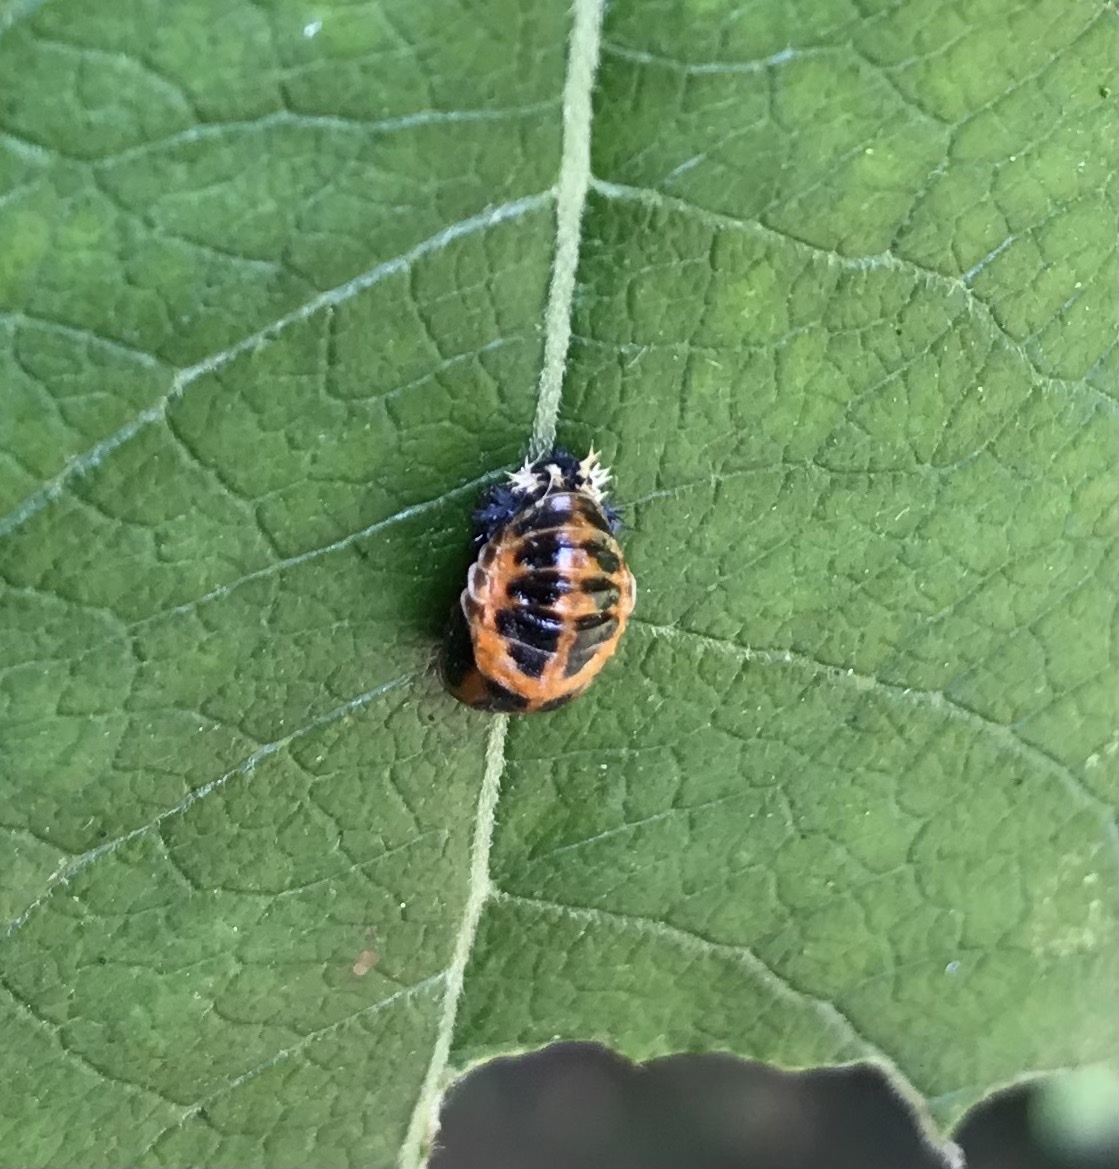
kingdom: Animalia
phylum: Arthropoda
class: Insecta
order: Coleoptera
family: Coccinellidae
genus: Harmonia
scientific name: Harmonia axyridis
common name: Harlequin ladybird
